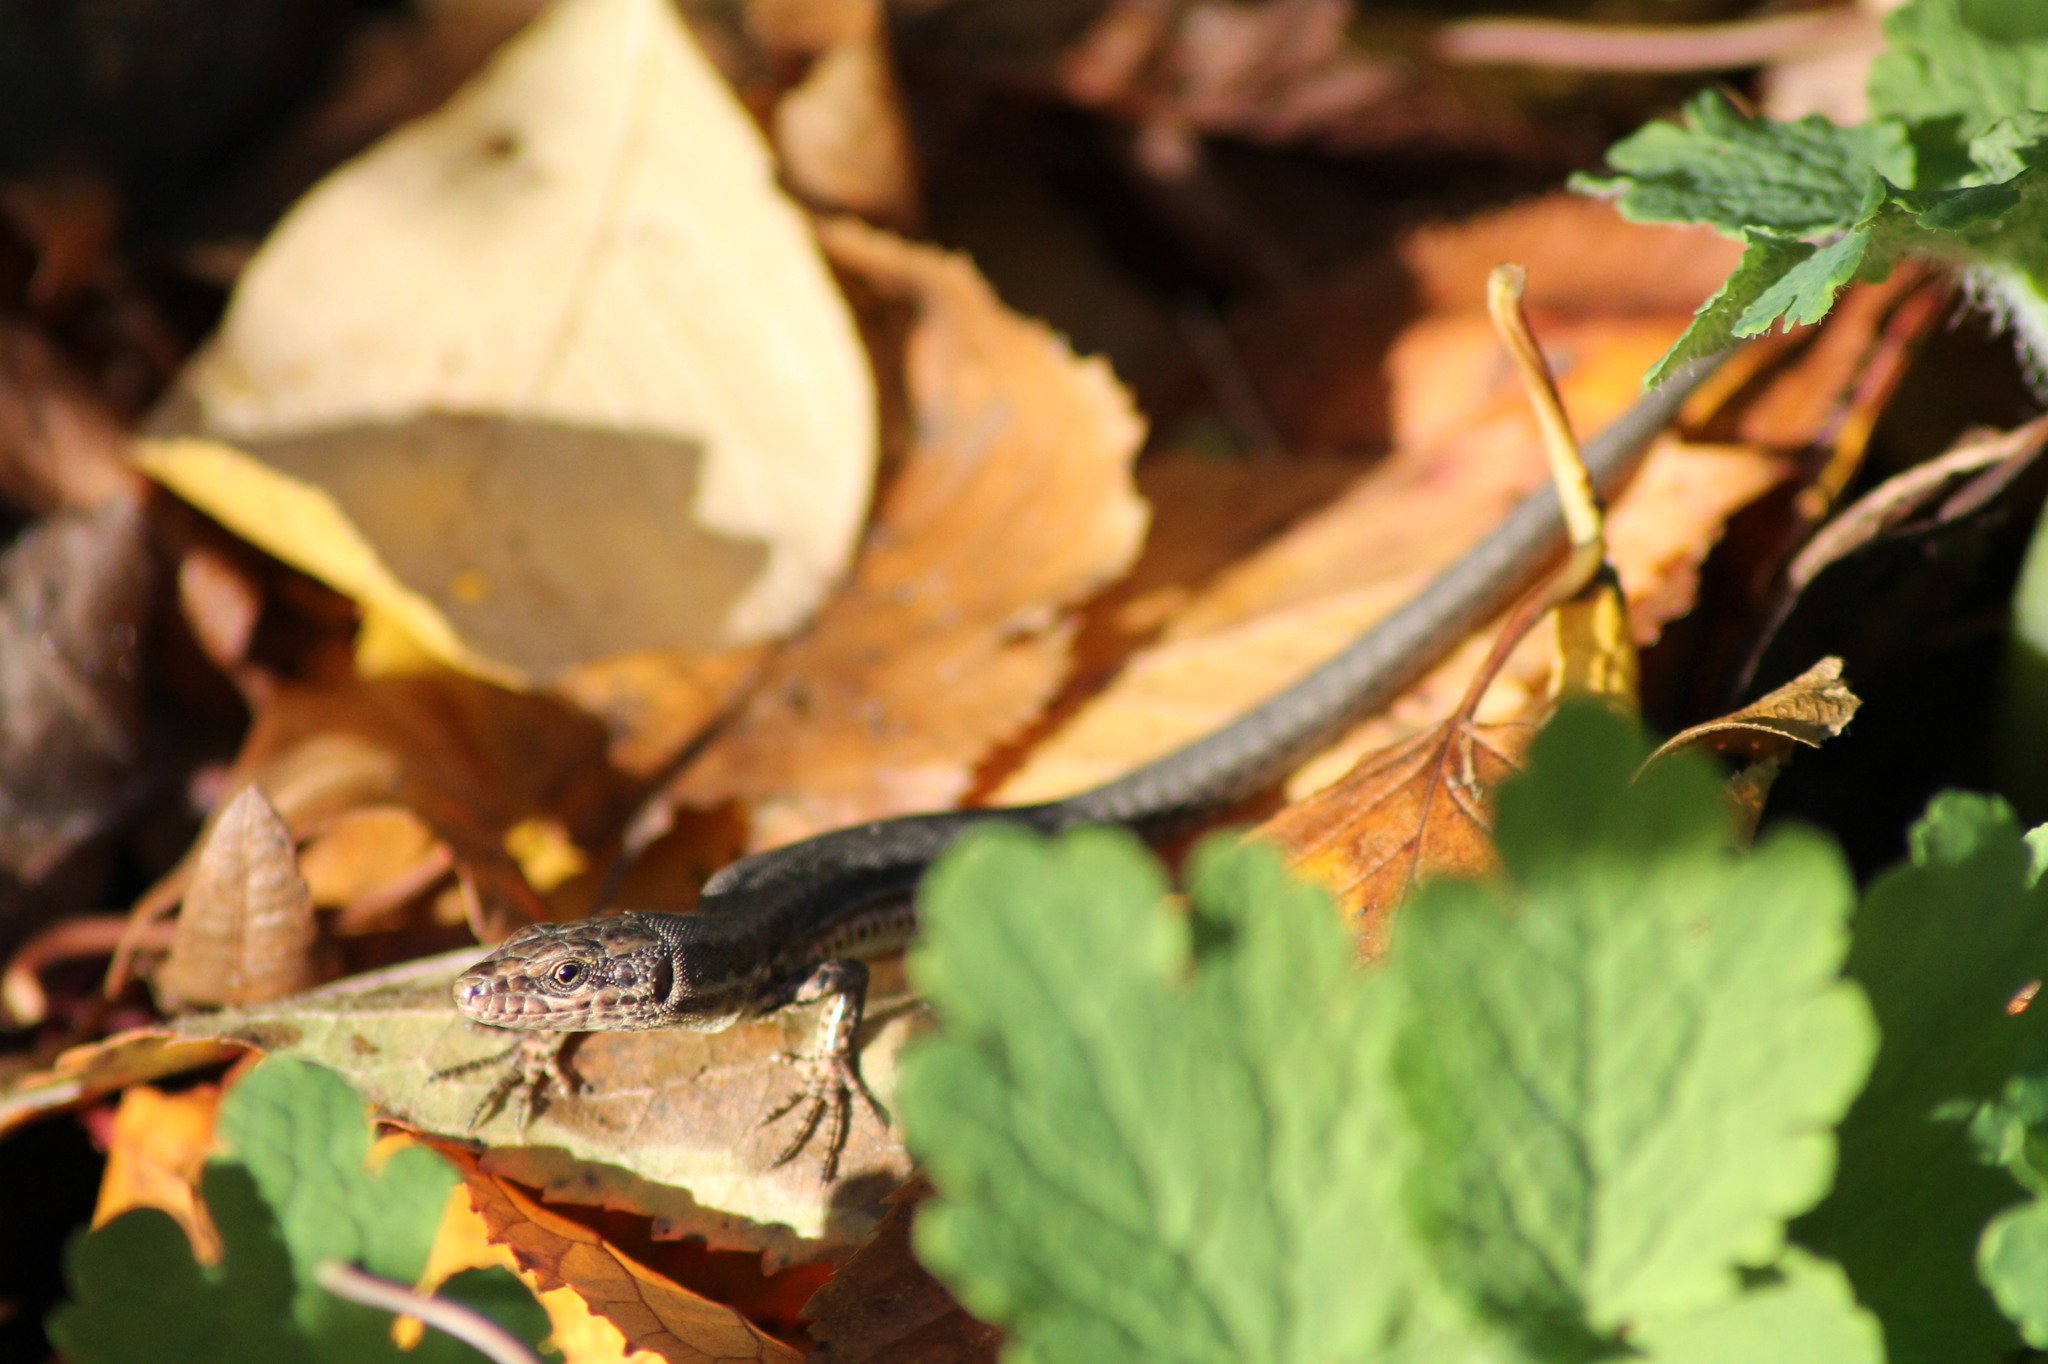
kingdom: Animalia
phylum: Chordata
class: Squamata
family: Lacertidae
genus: Podarcis
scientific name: Podarcis muralis
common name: Common wall lizard
